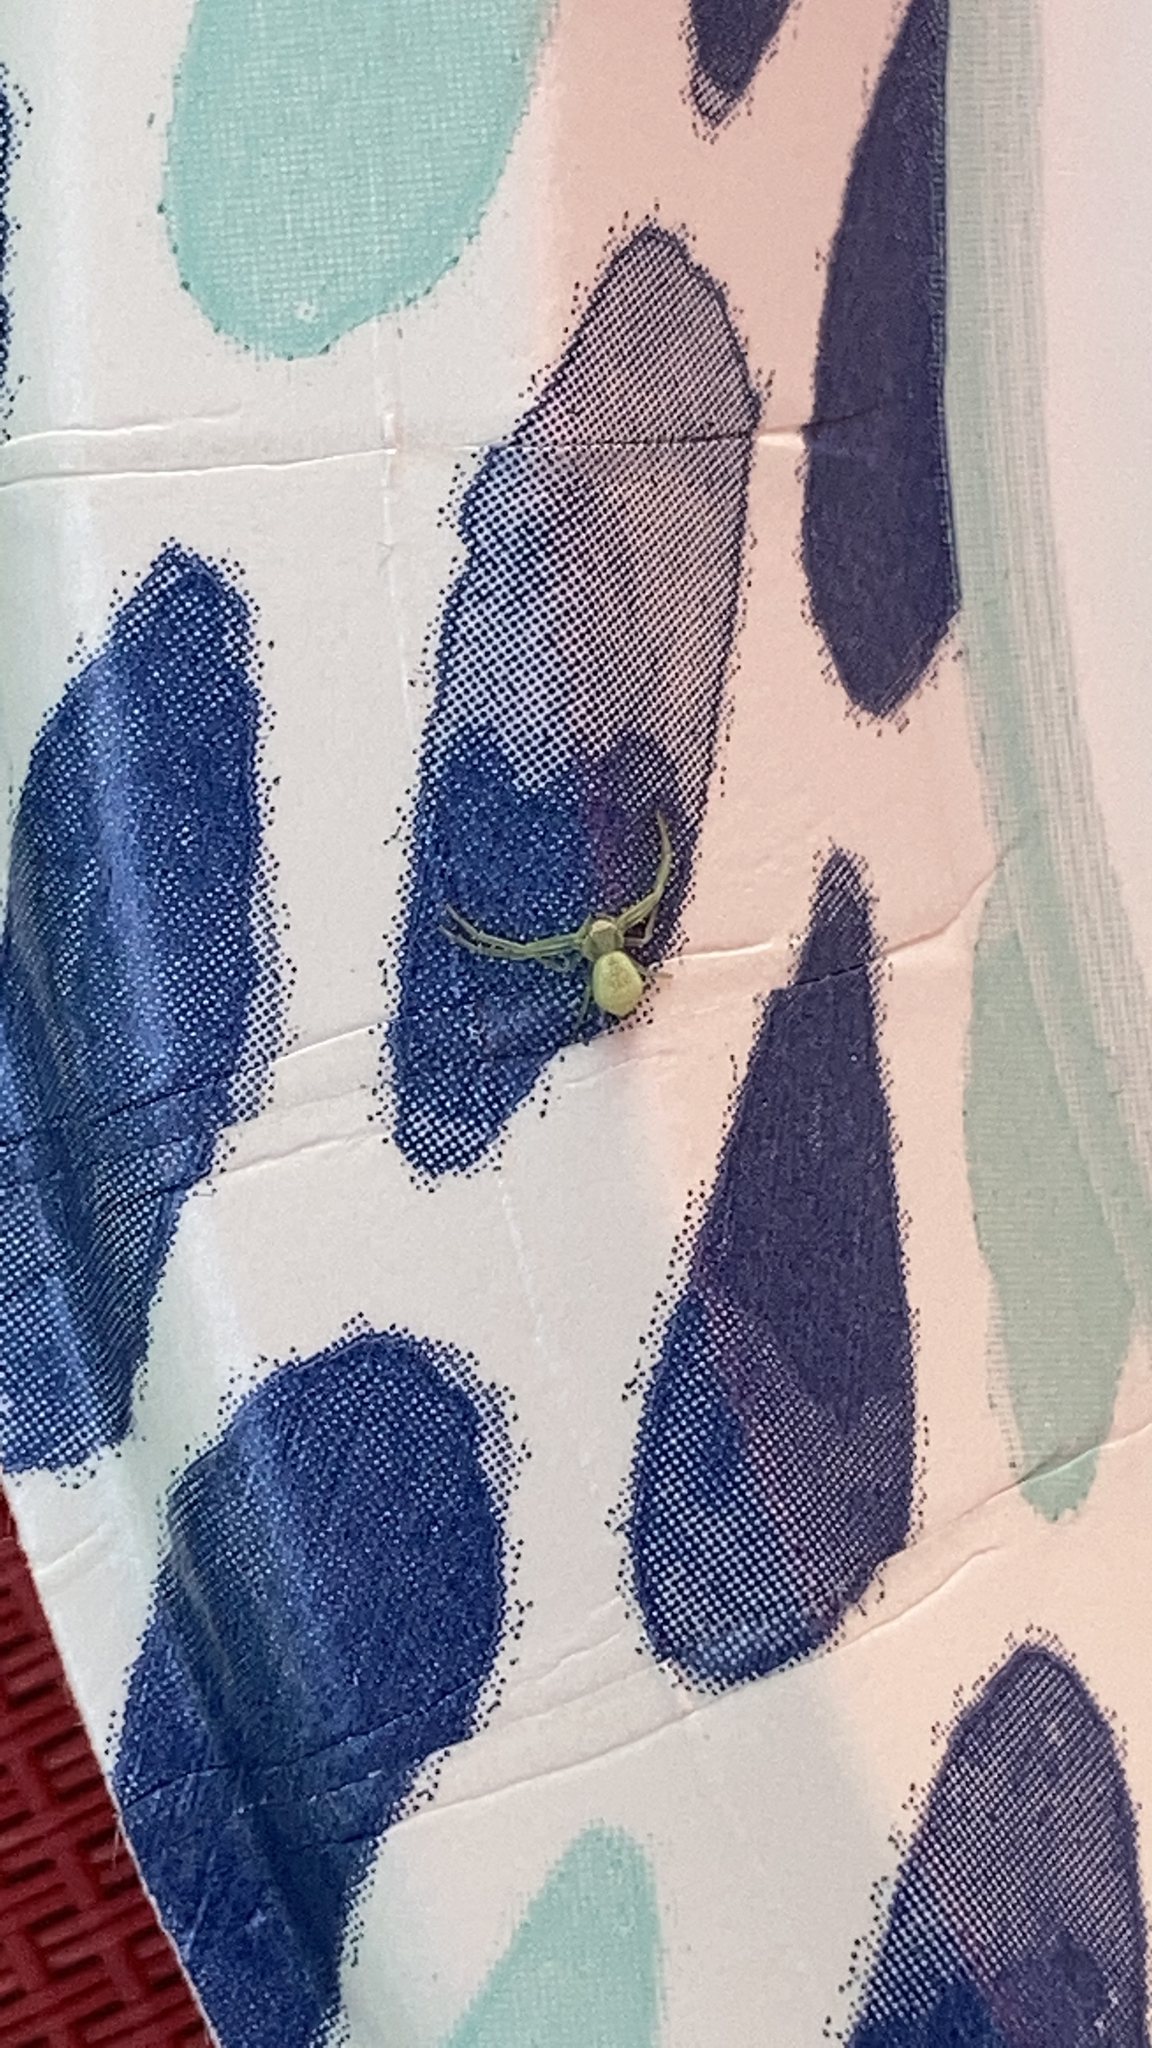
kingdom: Animalia
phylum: Arthropoda
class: Arachnida
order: Araneae
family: Thomisidae
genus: Misumessus
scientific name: Misumessus oblongus
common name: American green crab spider
